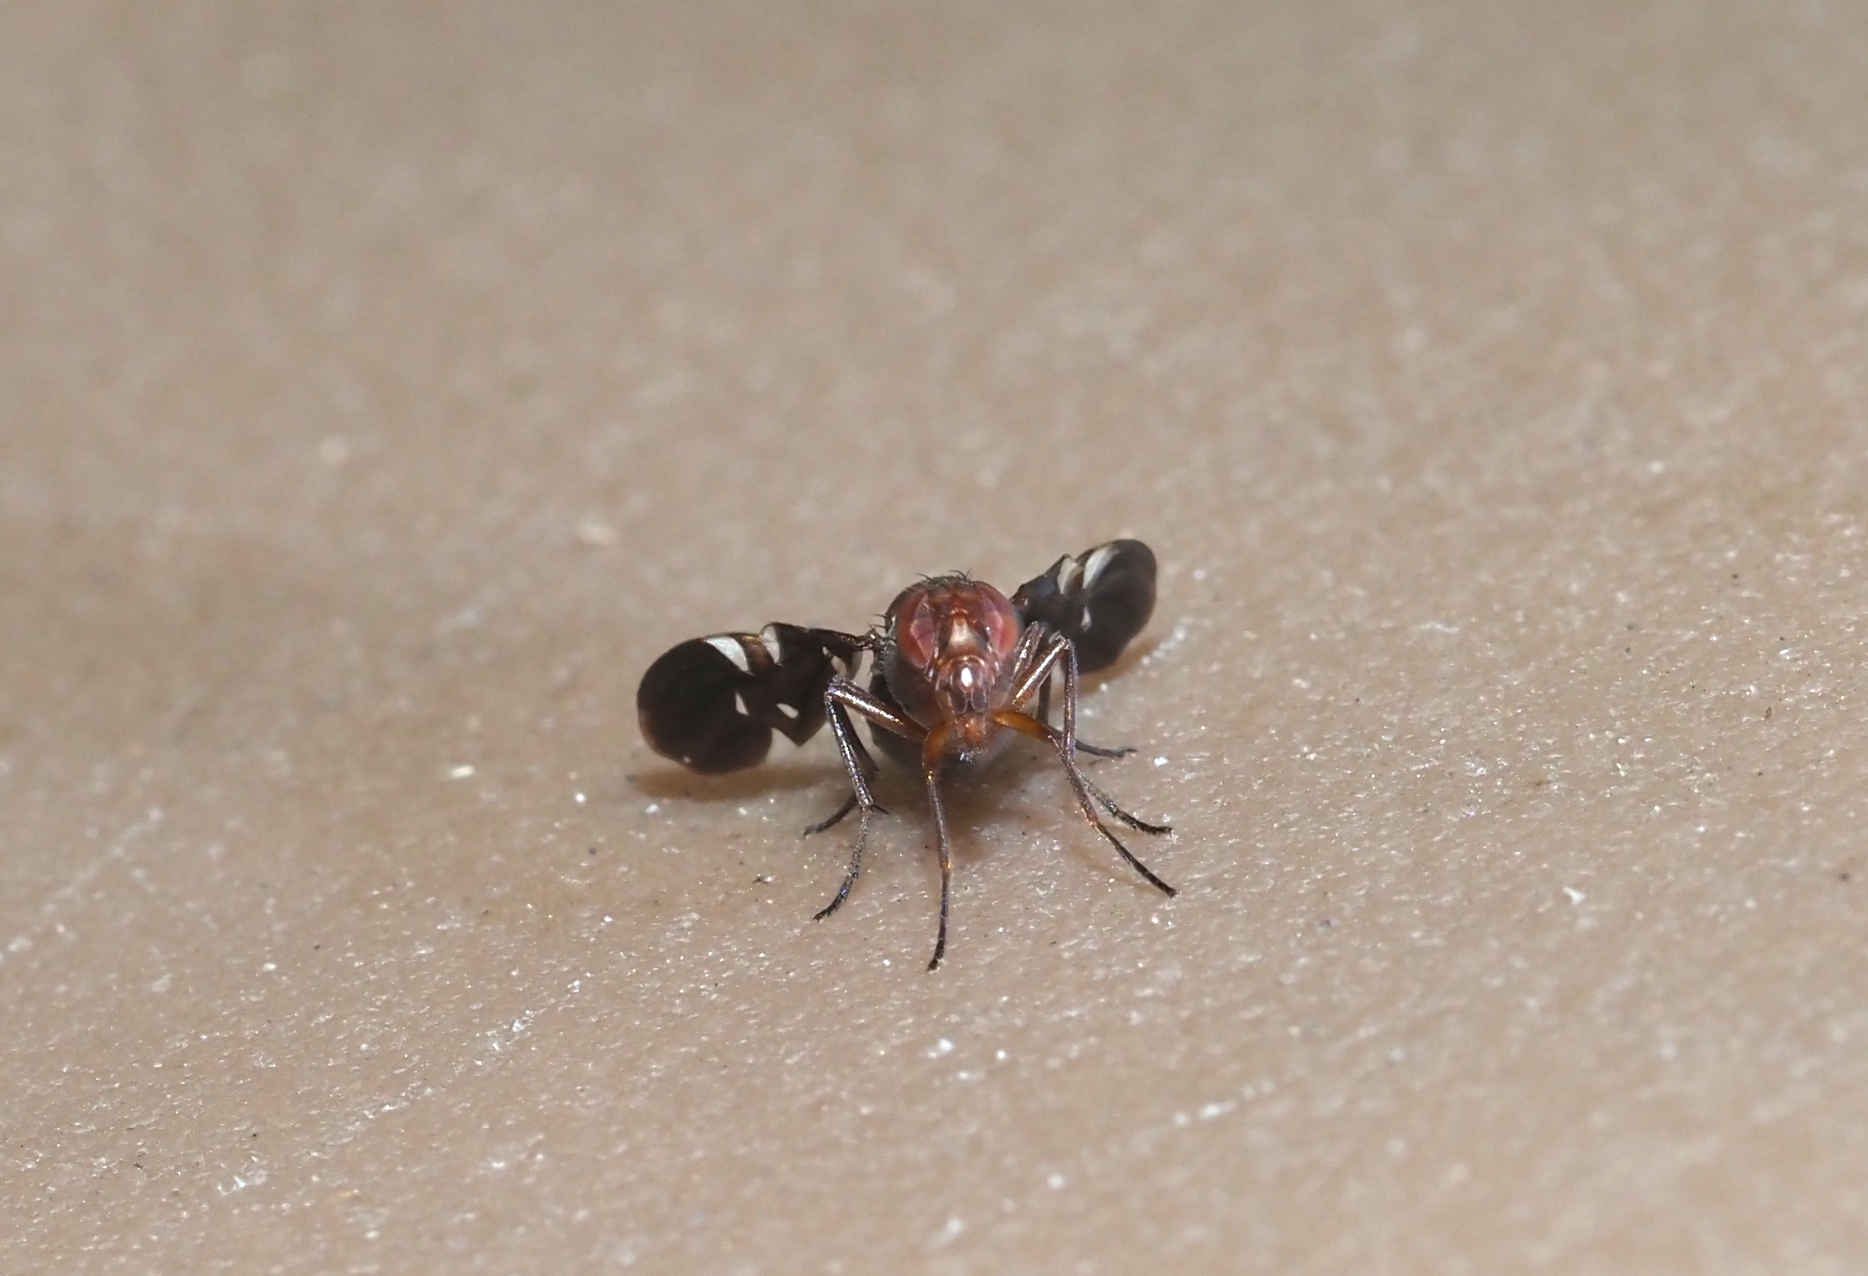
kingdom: Animalia
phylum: Arthropoda
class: Insecta
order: Diptera
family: Ulidiidae
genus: Delphinia
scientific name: Delphinia picta
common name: Common picture-winged fly
